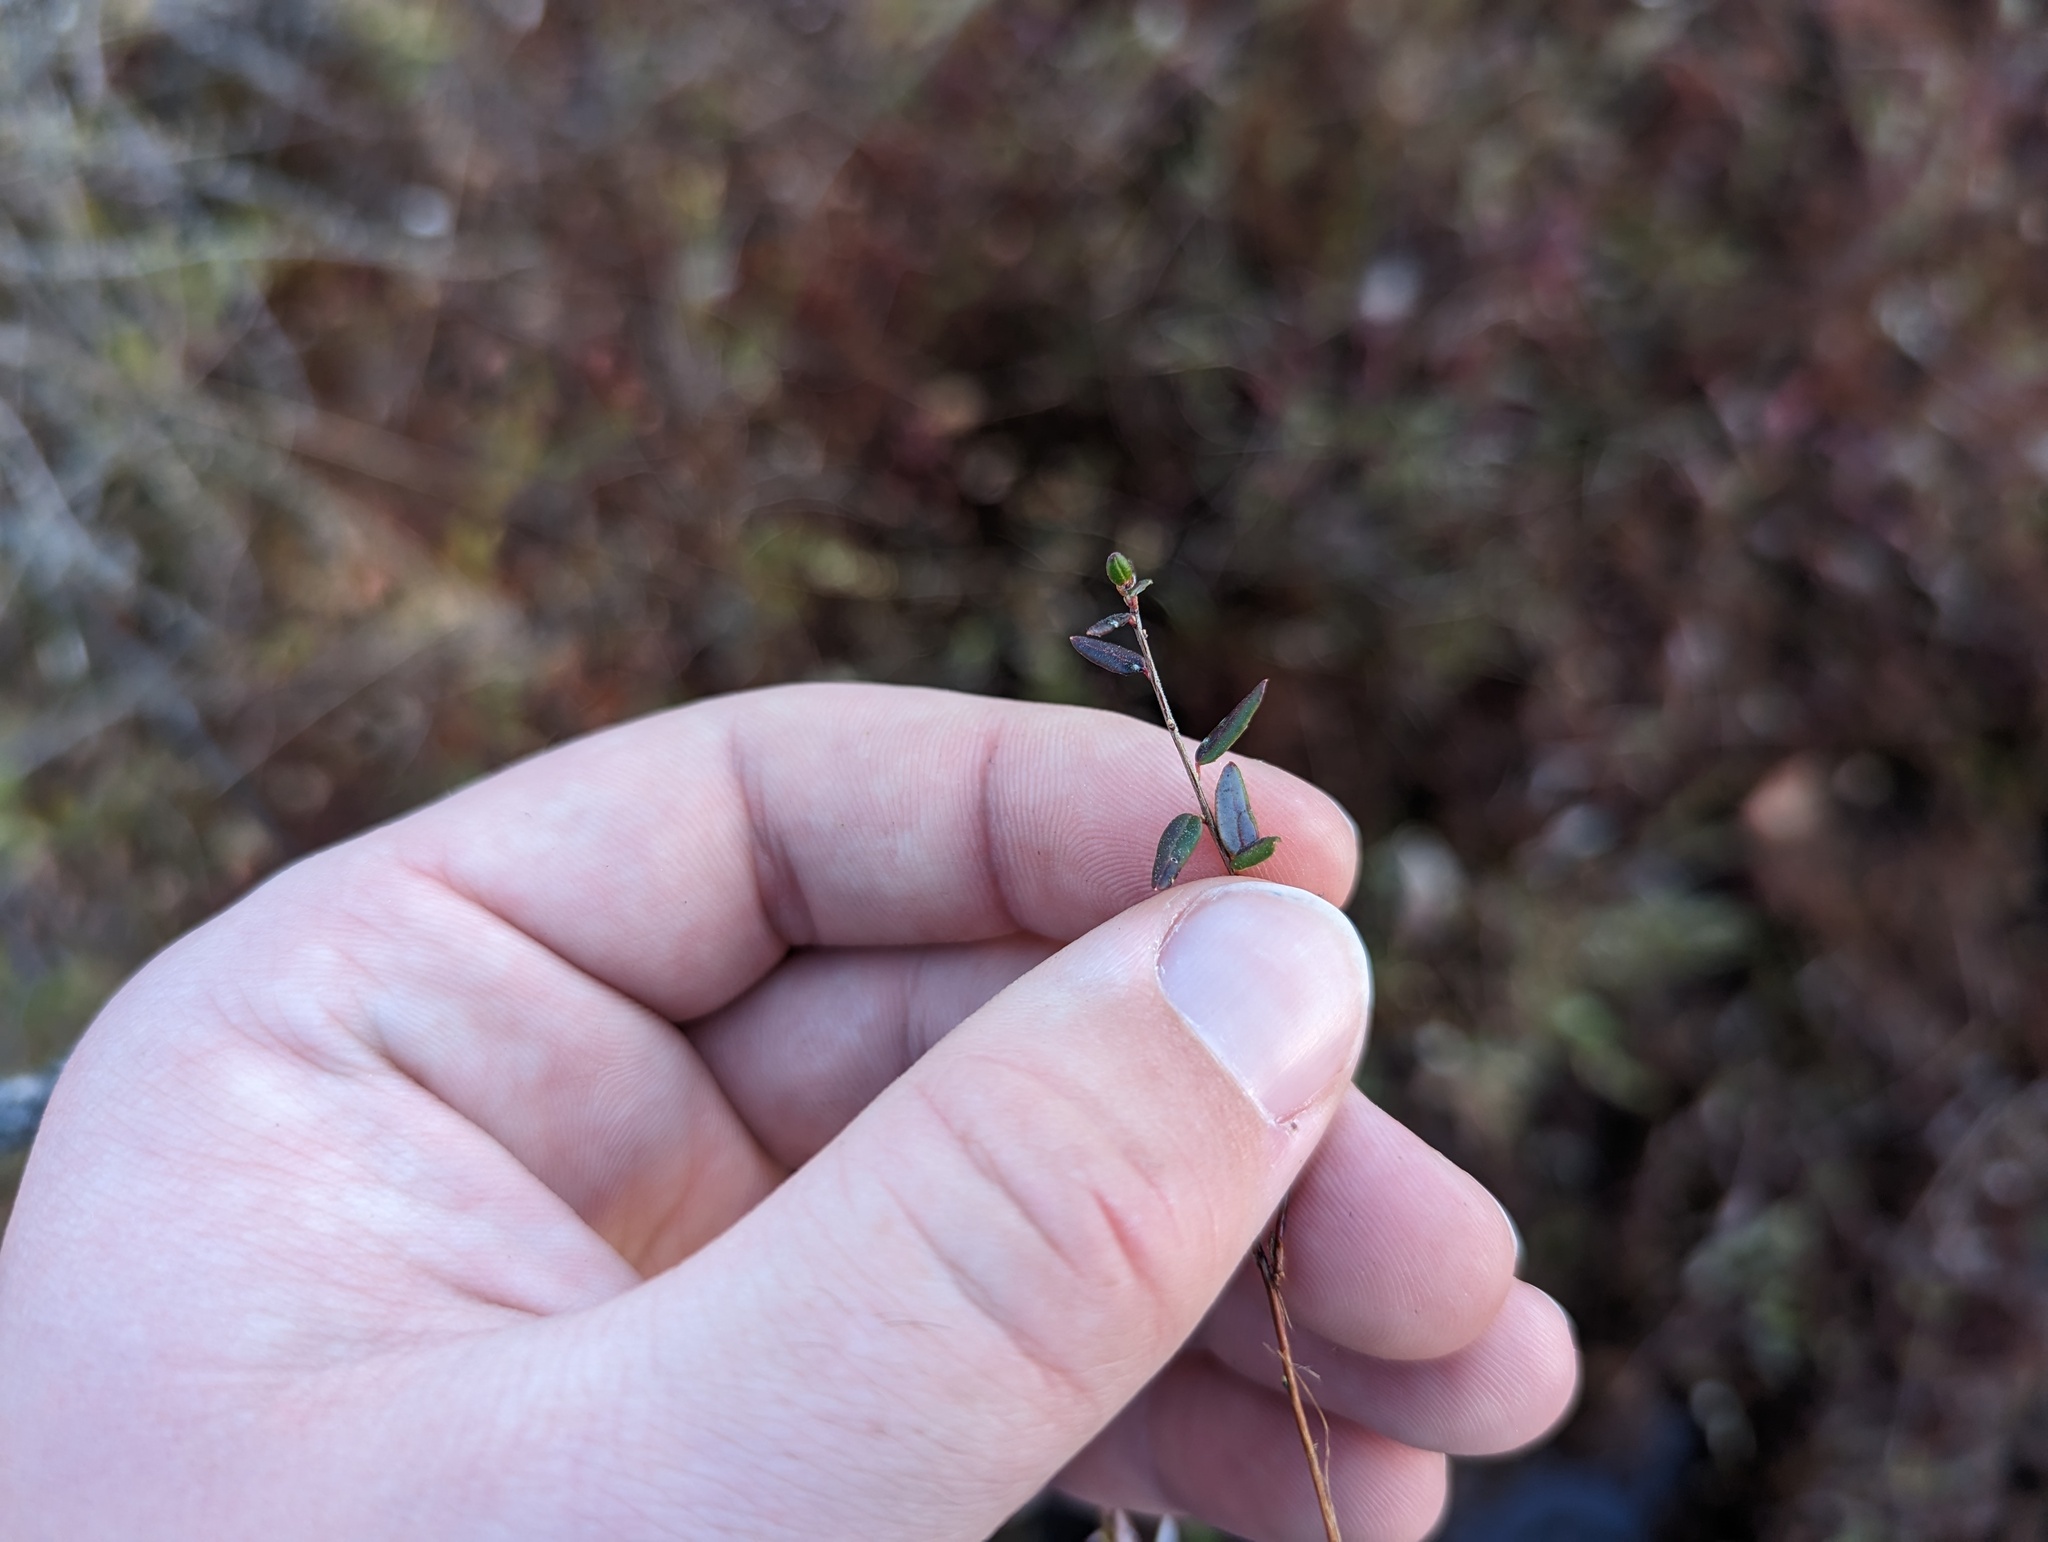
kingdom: Plantae
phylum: Tracheophyta
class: Magnoliopsida
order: Ericales
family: Ericaceae
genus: Vaccinium
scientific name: Vaccinium oxycoccos
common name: Cranberry
